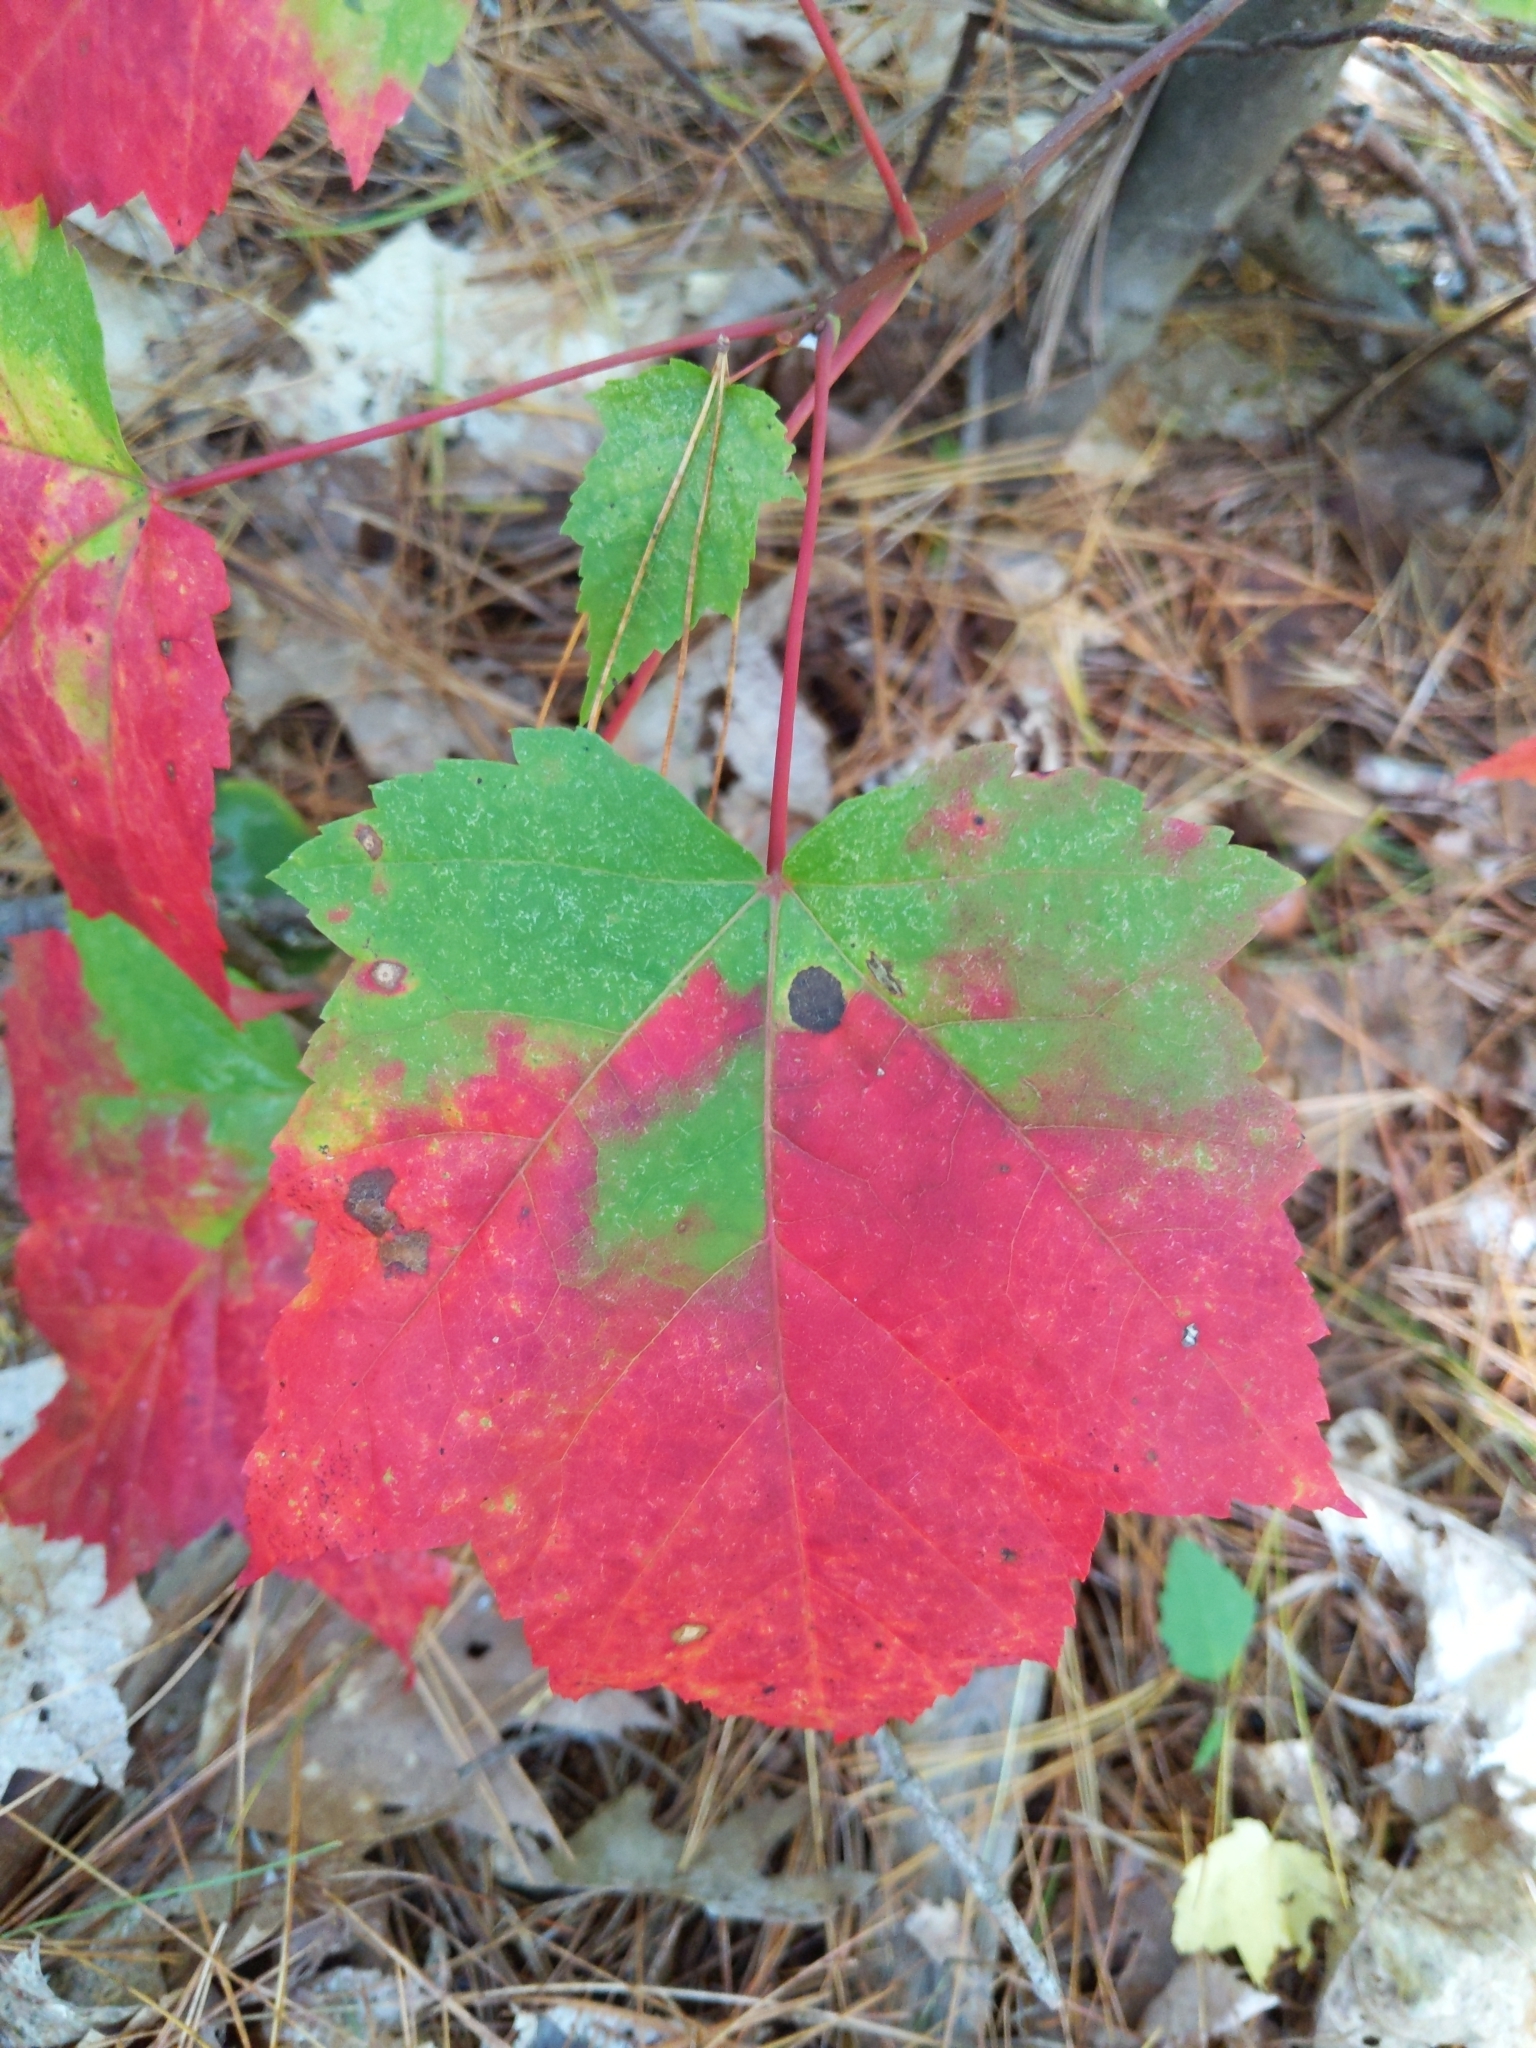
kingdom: Plantae
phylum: Tracheophyta
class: Magnoliopsida
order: Sapindales
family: Sapindaceae
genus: Acer
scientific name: Acer rubrum
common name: Red maple
